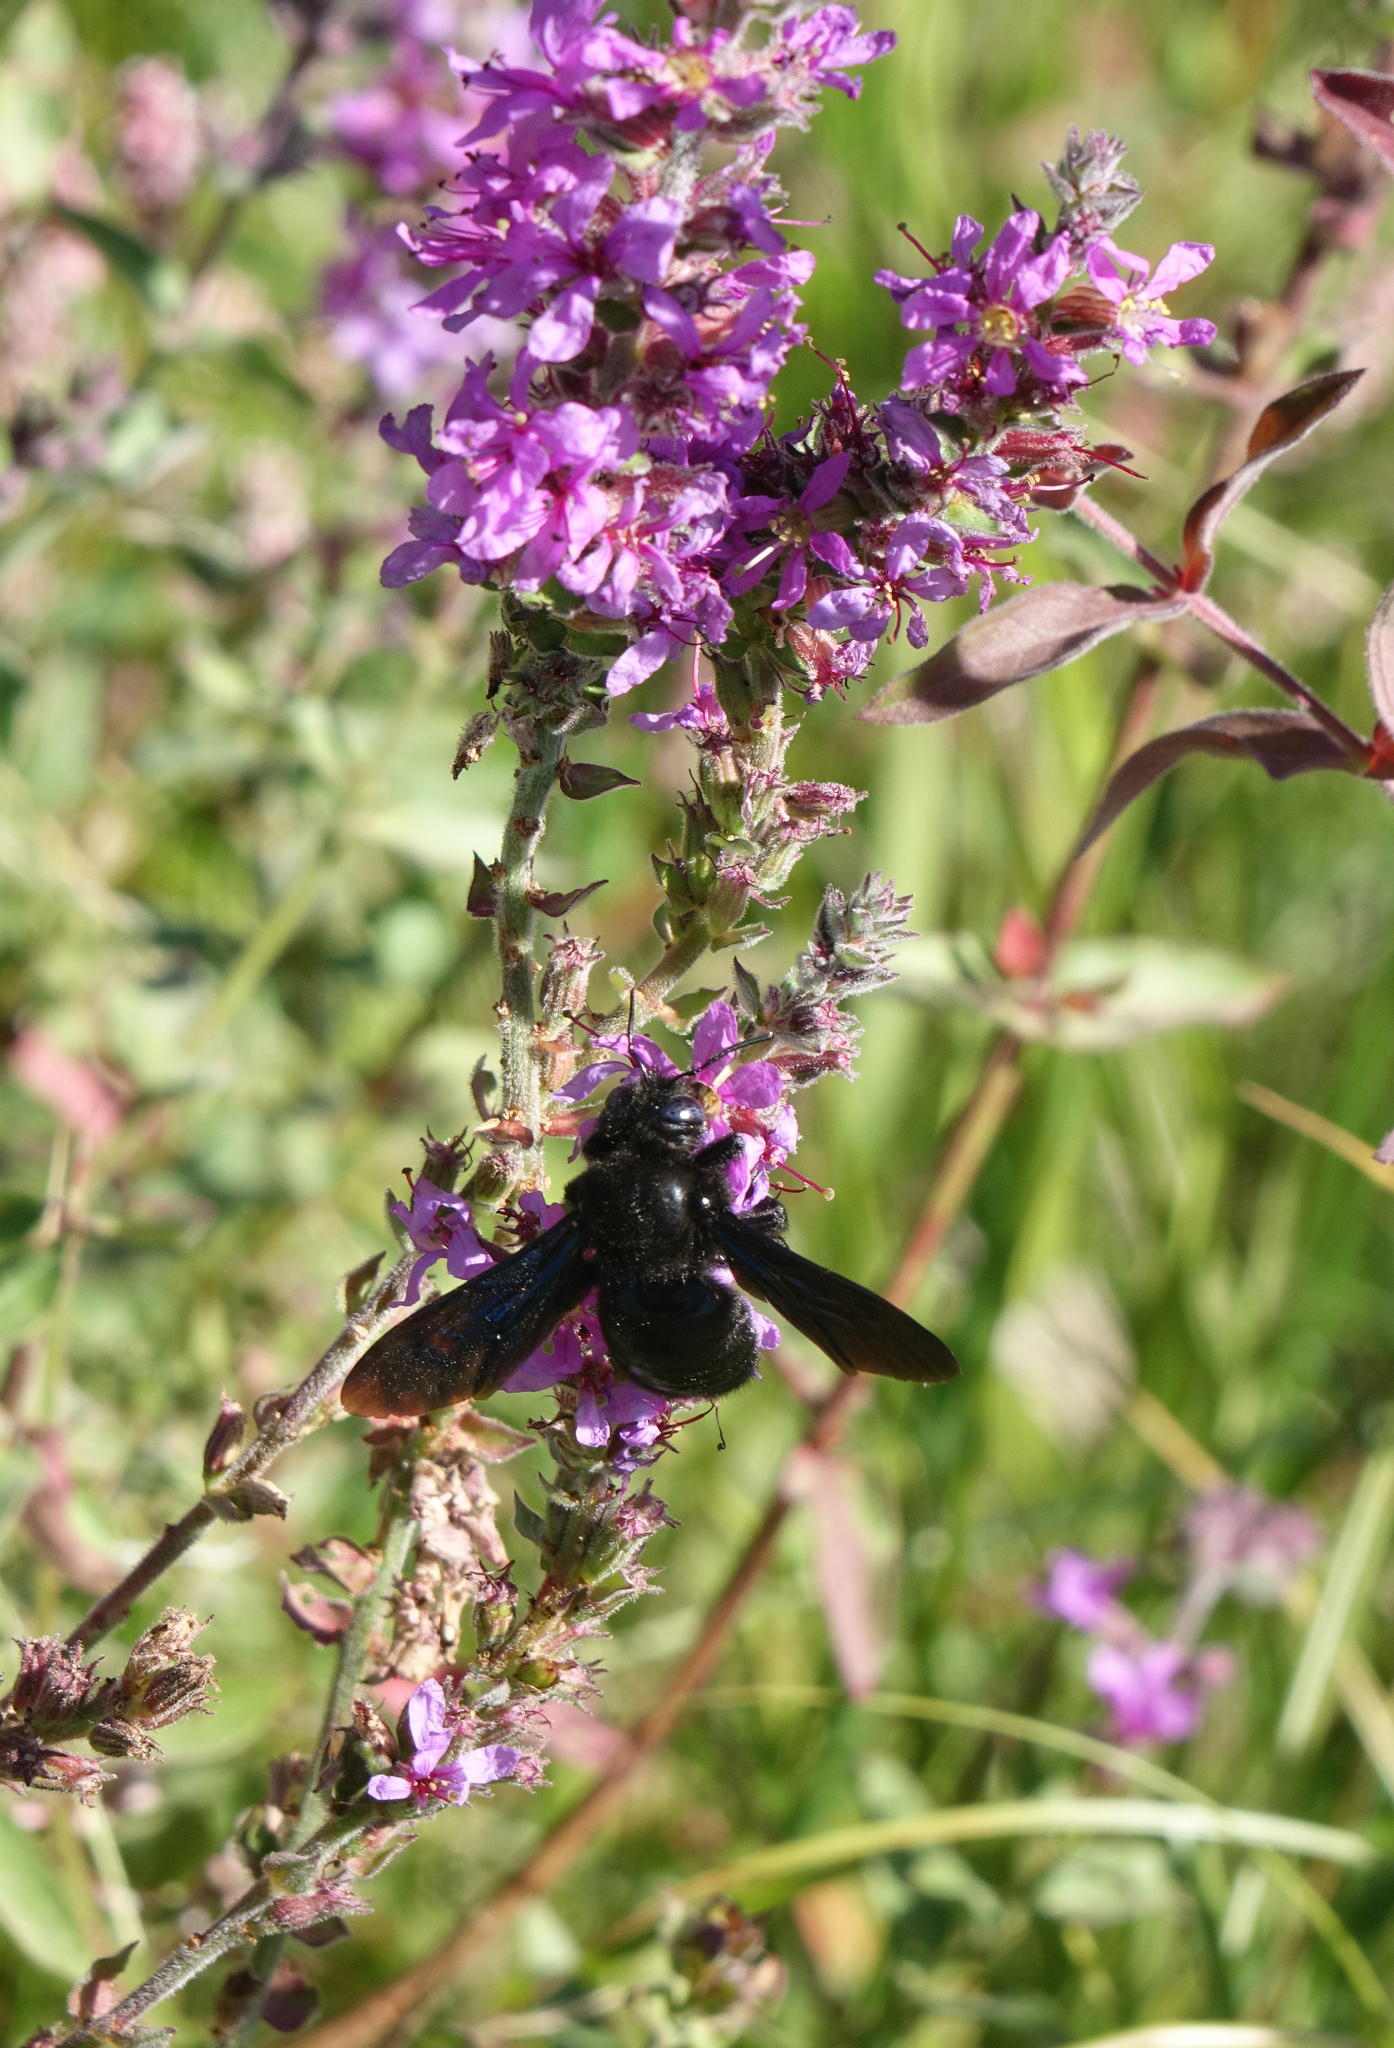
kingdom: Plantae
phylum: Tracheophyta
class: Magnoliopsida
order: Myrtales
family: Lythraceae
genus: Lythrum
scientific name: Lythrum salicaria
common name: Purple loosestrife
